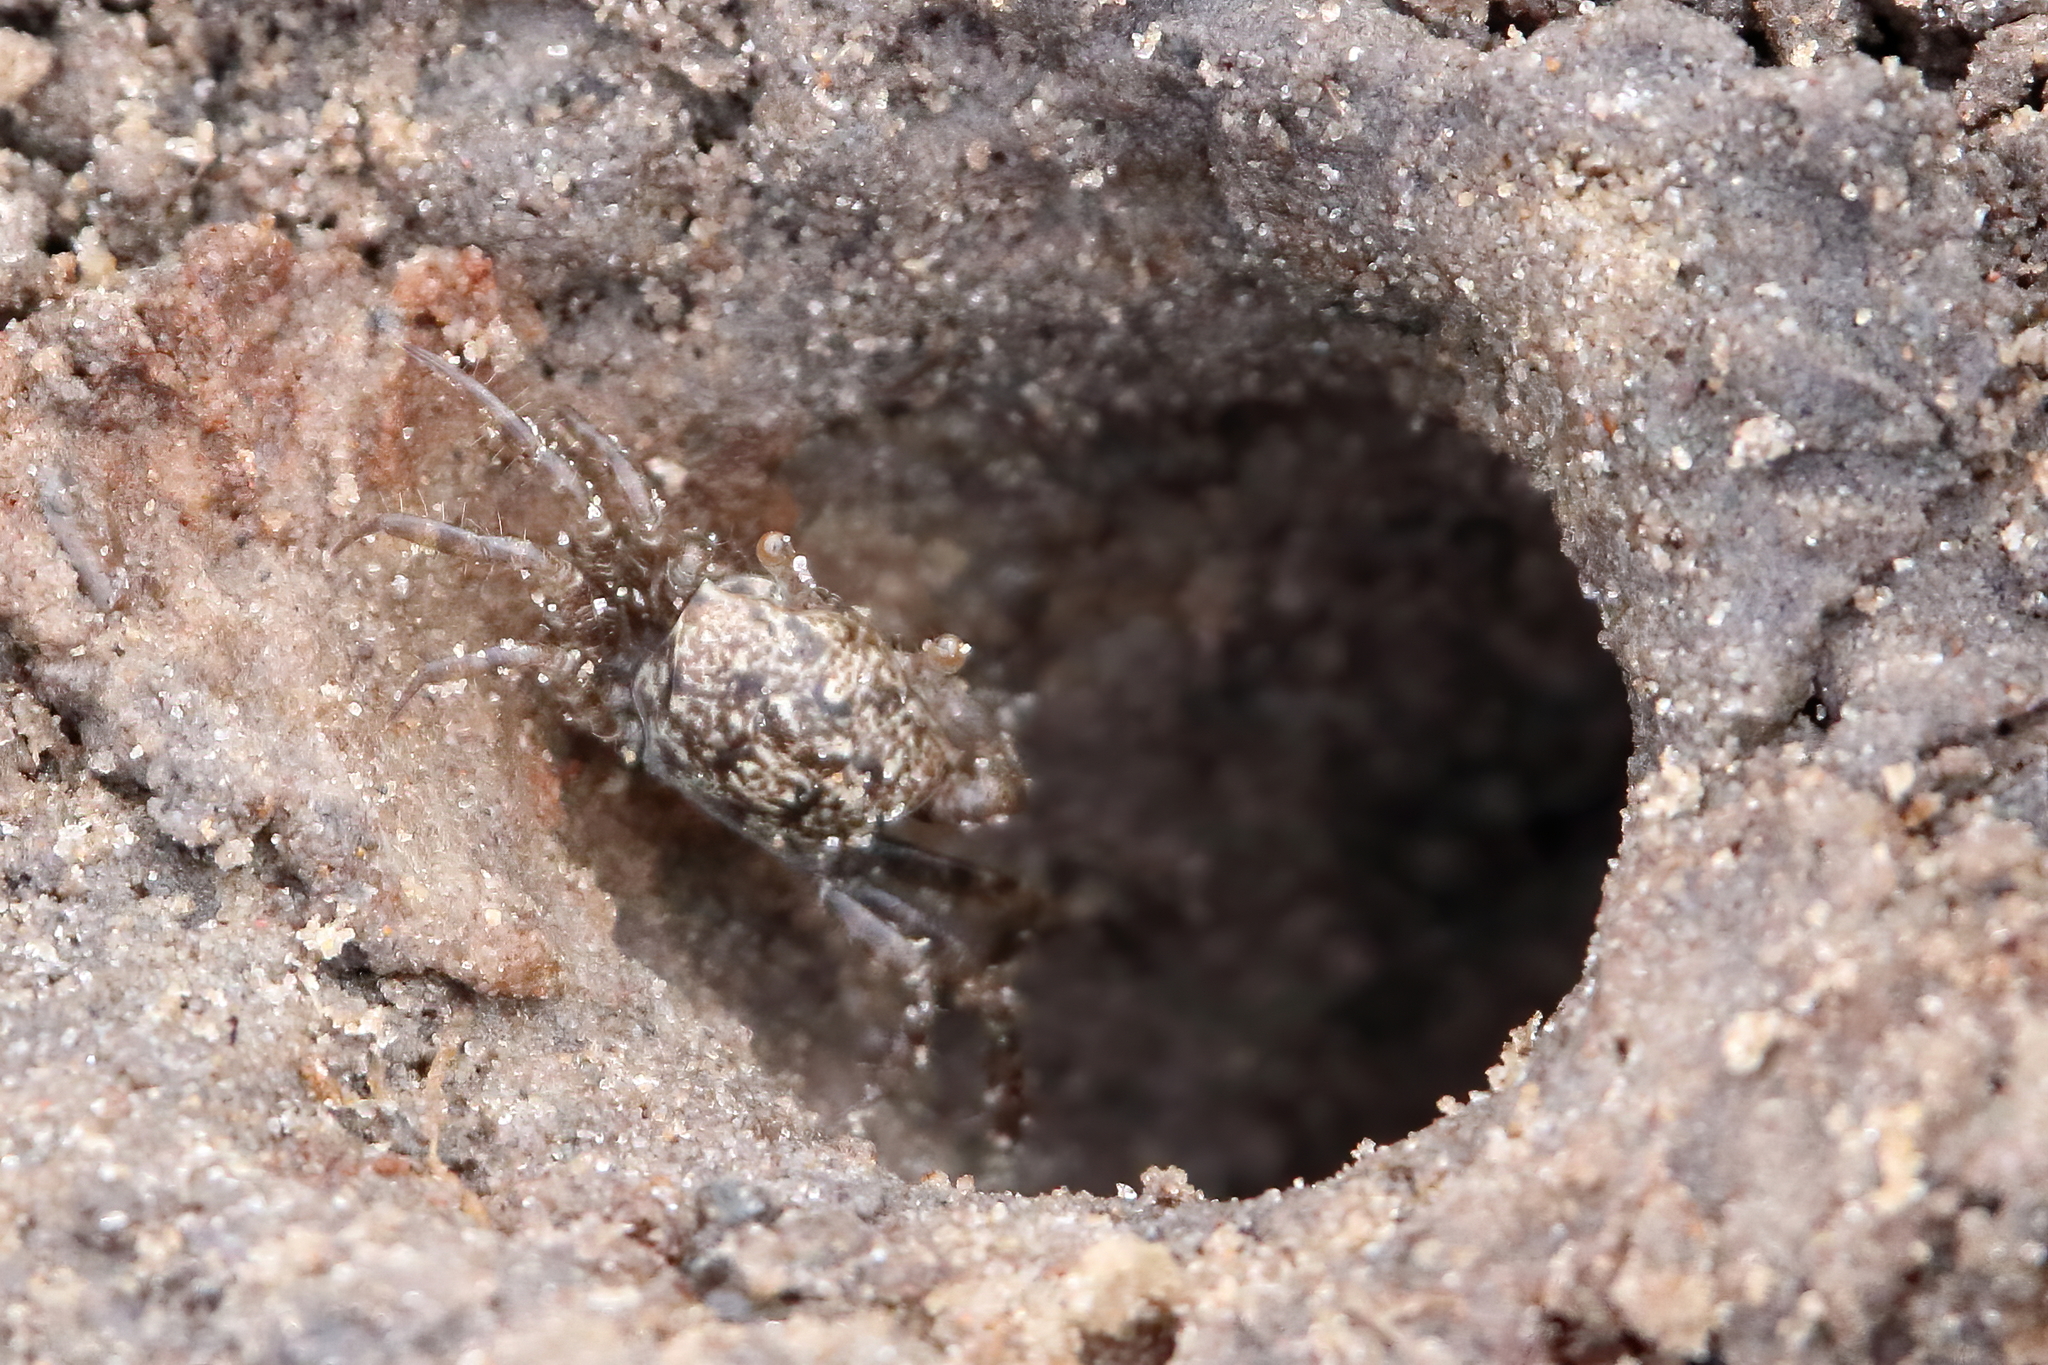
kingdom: Animalia
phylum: Arthropoda
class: Malacostraca
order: Decapoda
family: Ocypodidae
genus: Ocypode
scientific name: Ocypode quadrata
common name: Ghost crab
